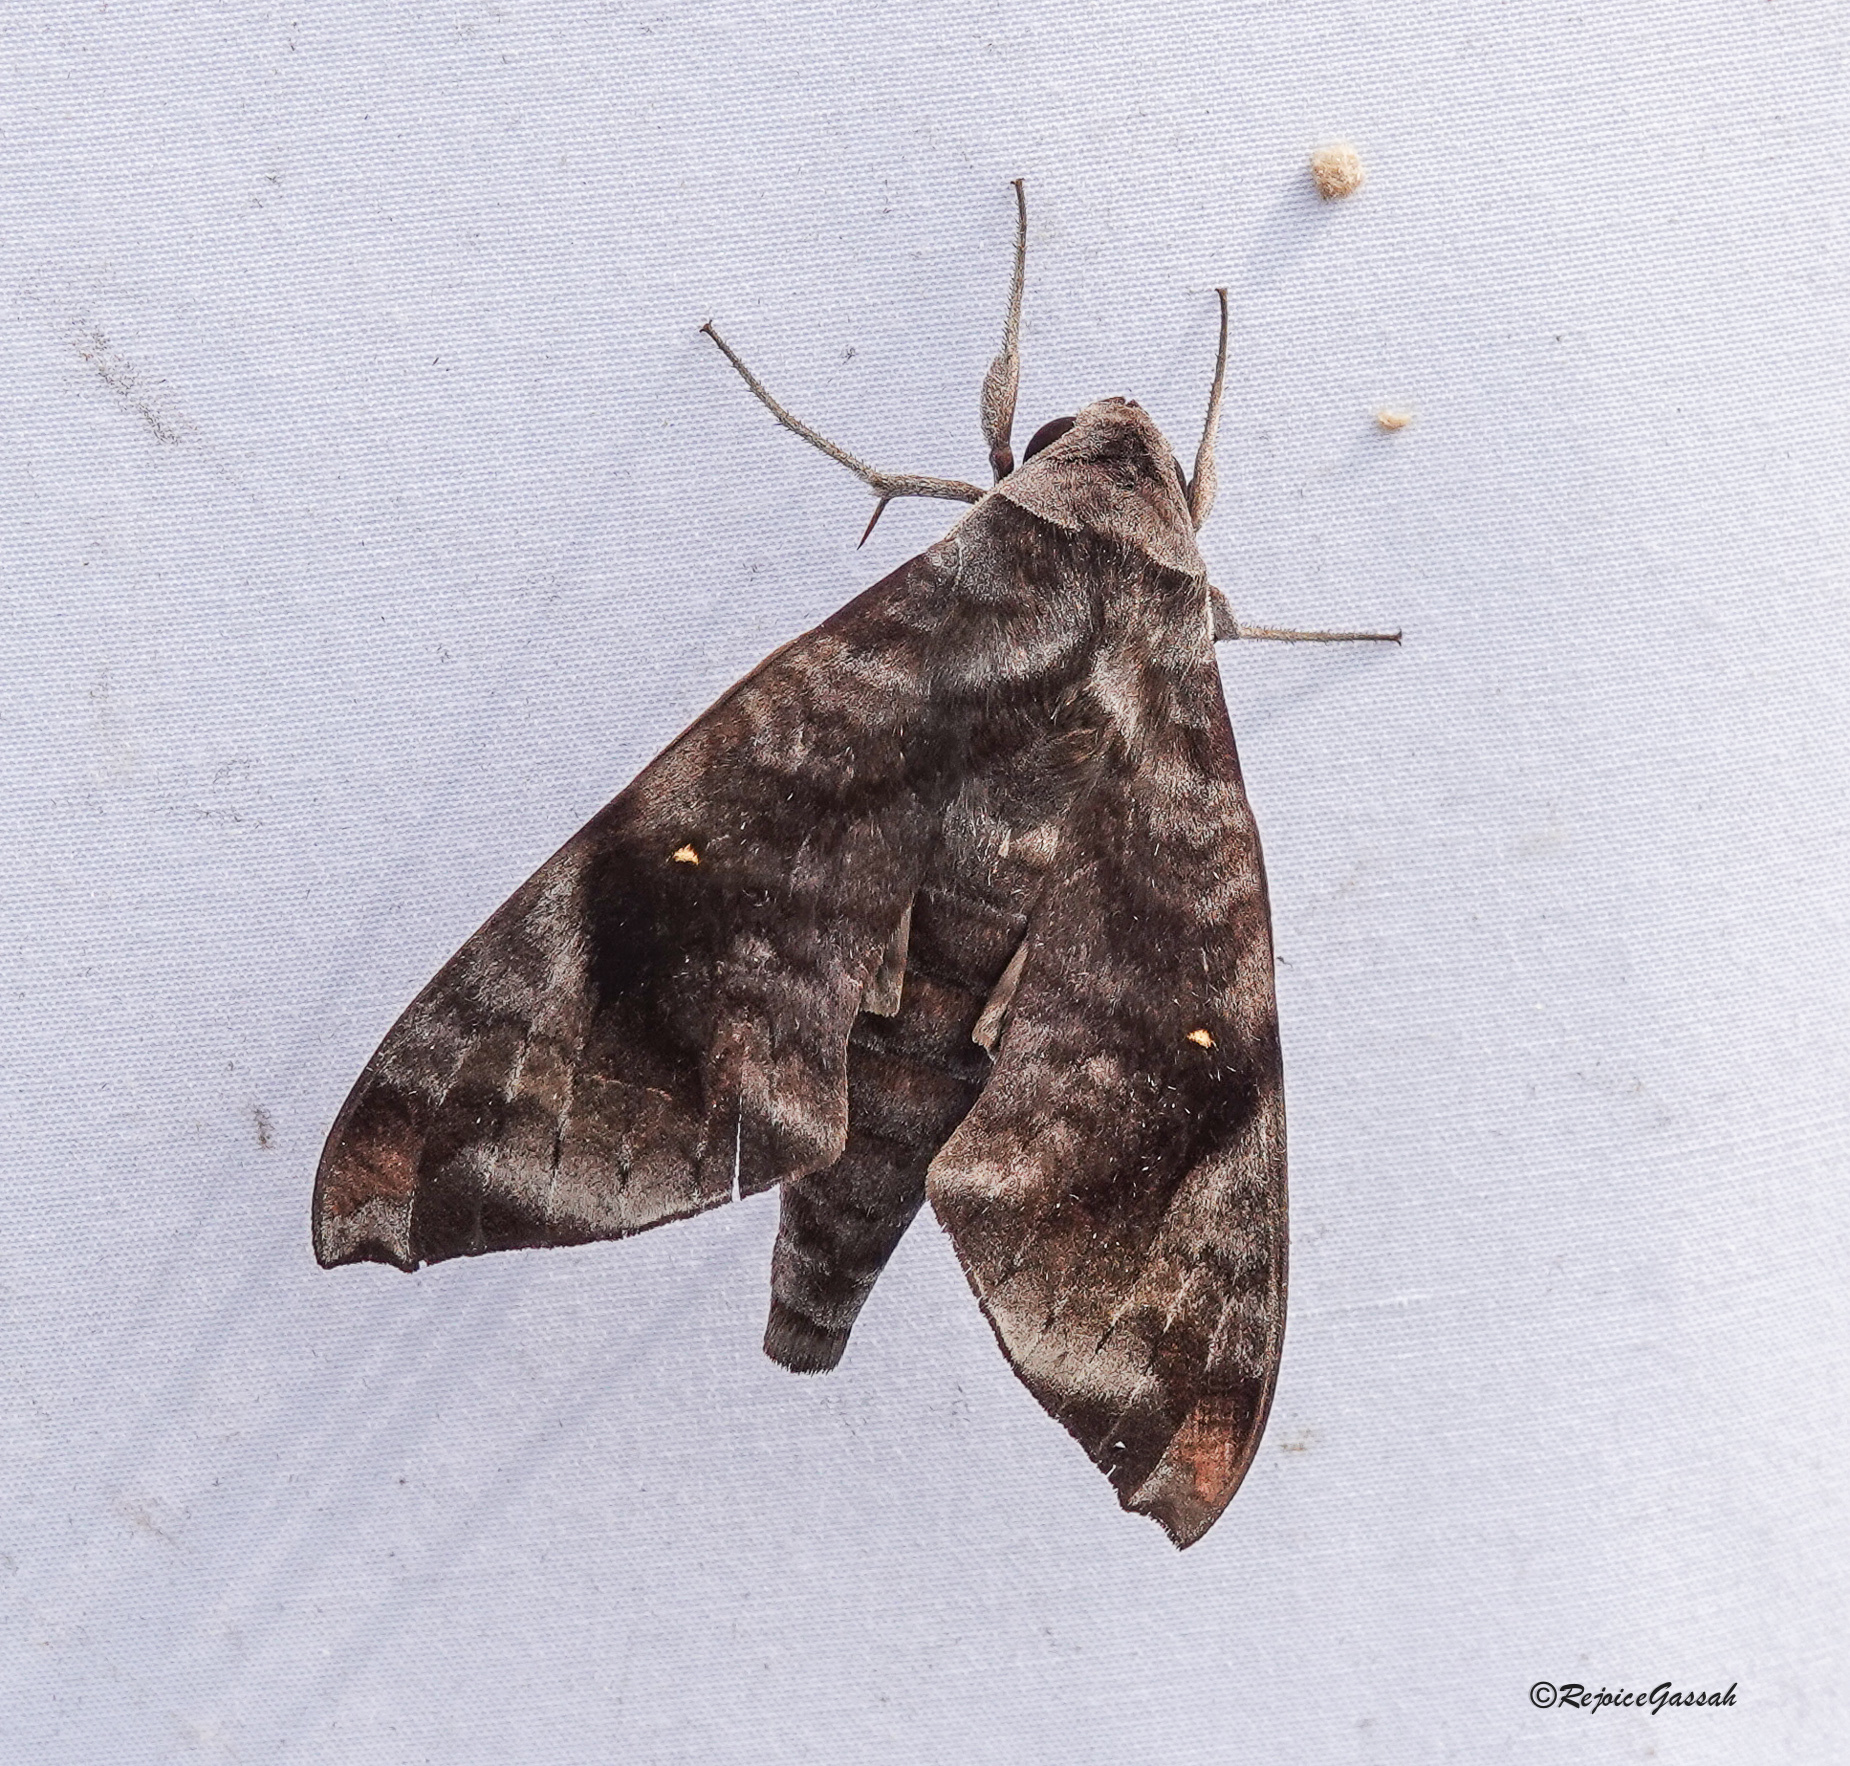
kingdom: Animalia
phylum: Arthropoda
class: Insecta
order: Lepidoptera
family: Sphingidae
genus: Acosmeryx
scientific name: Acosmeryx pseudonaga
